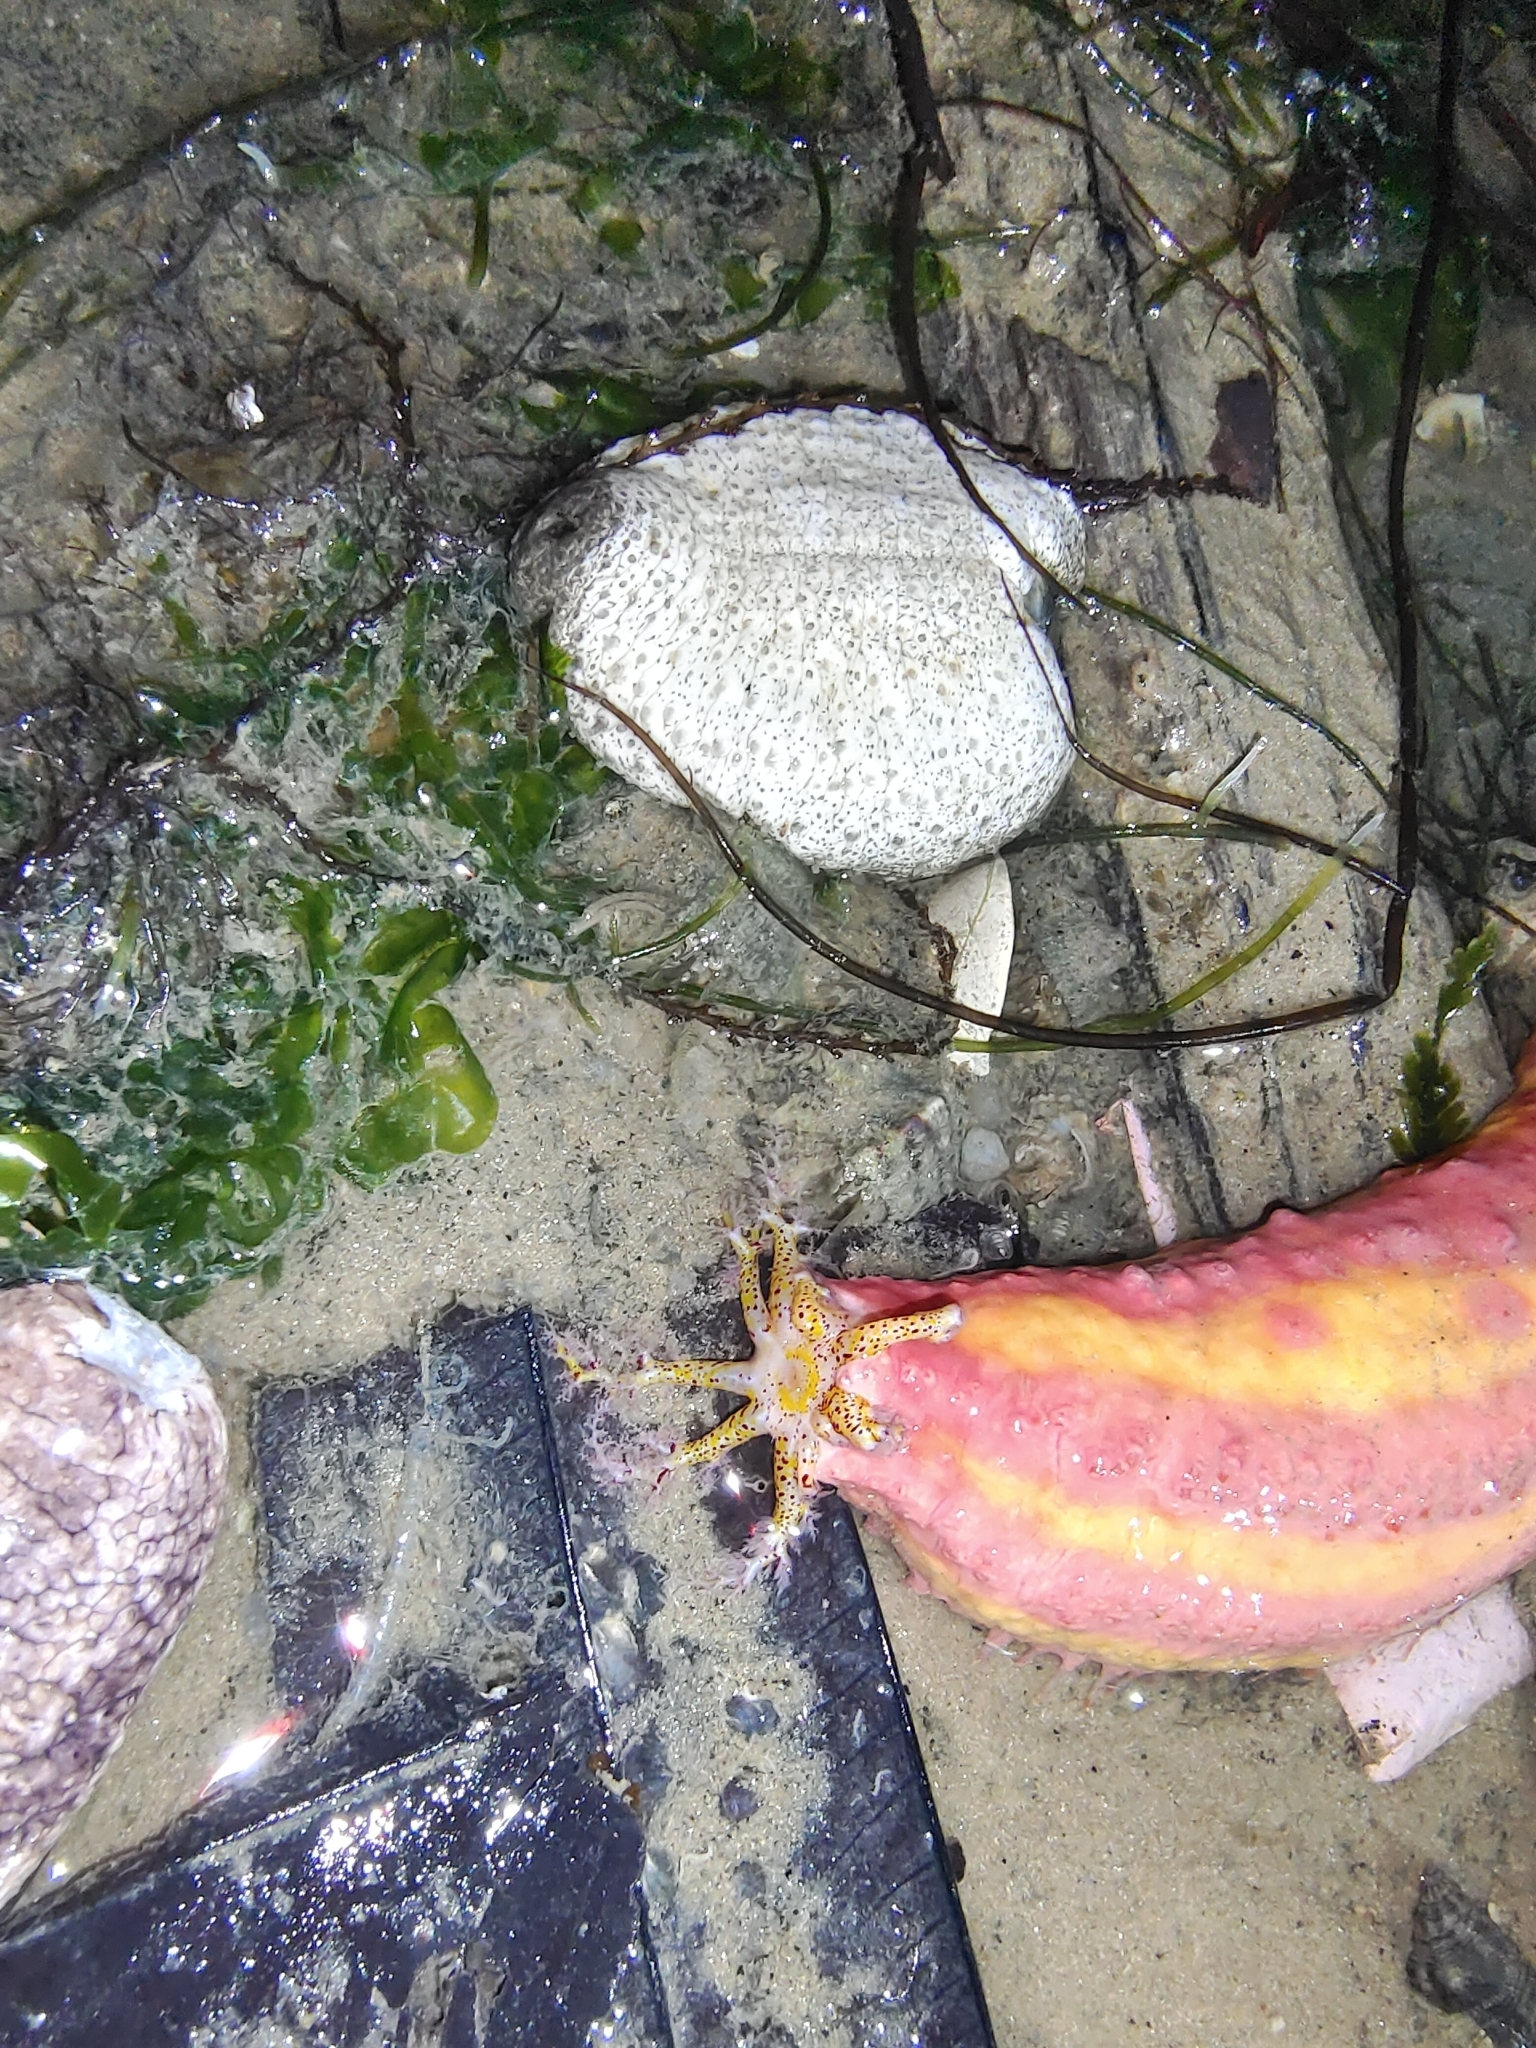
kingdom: Animalia
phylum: Echinodermata
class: Holothuroidea
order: Dendrochirotida
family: Cucumariidae
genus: Cercodemas
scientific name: Cercodemas anceps
